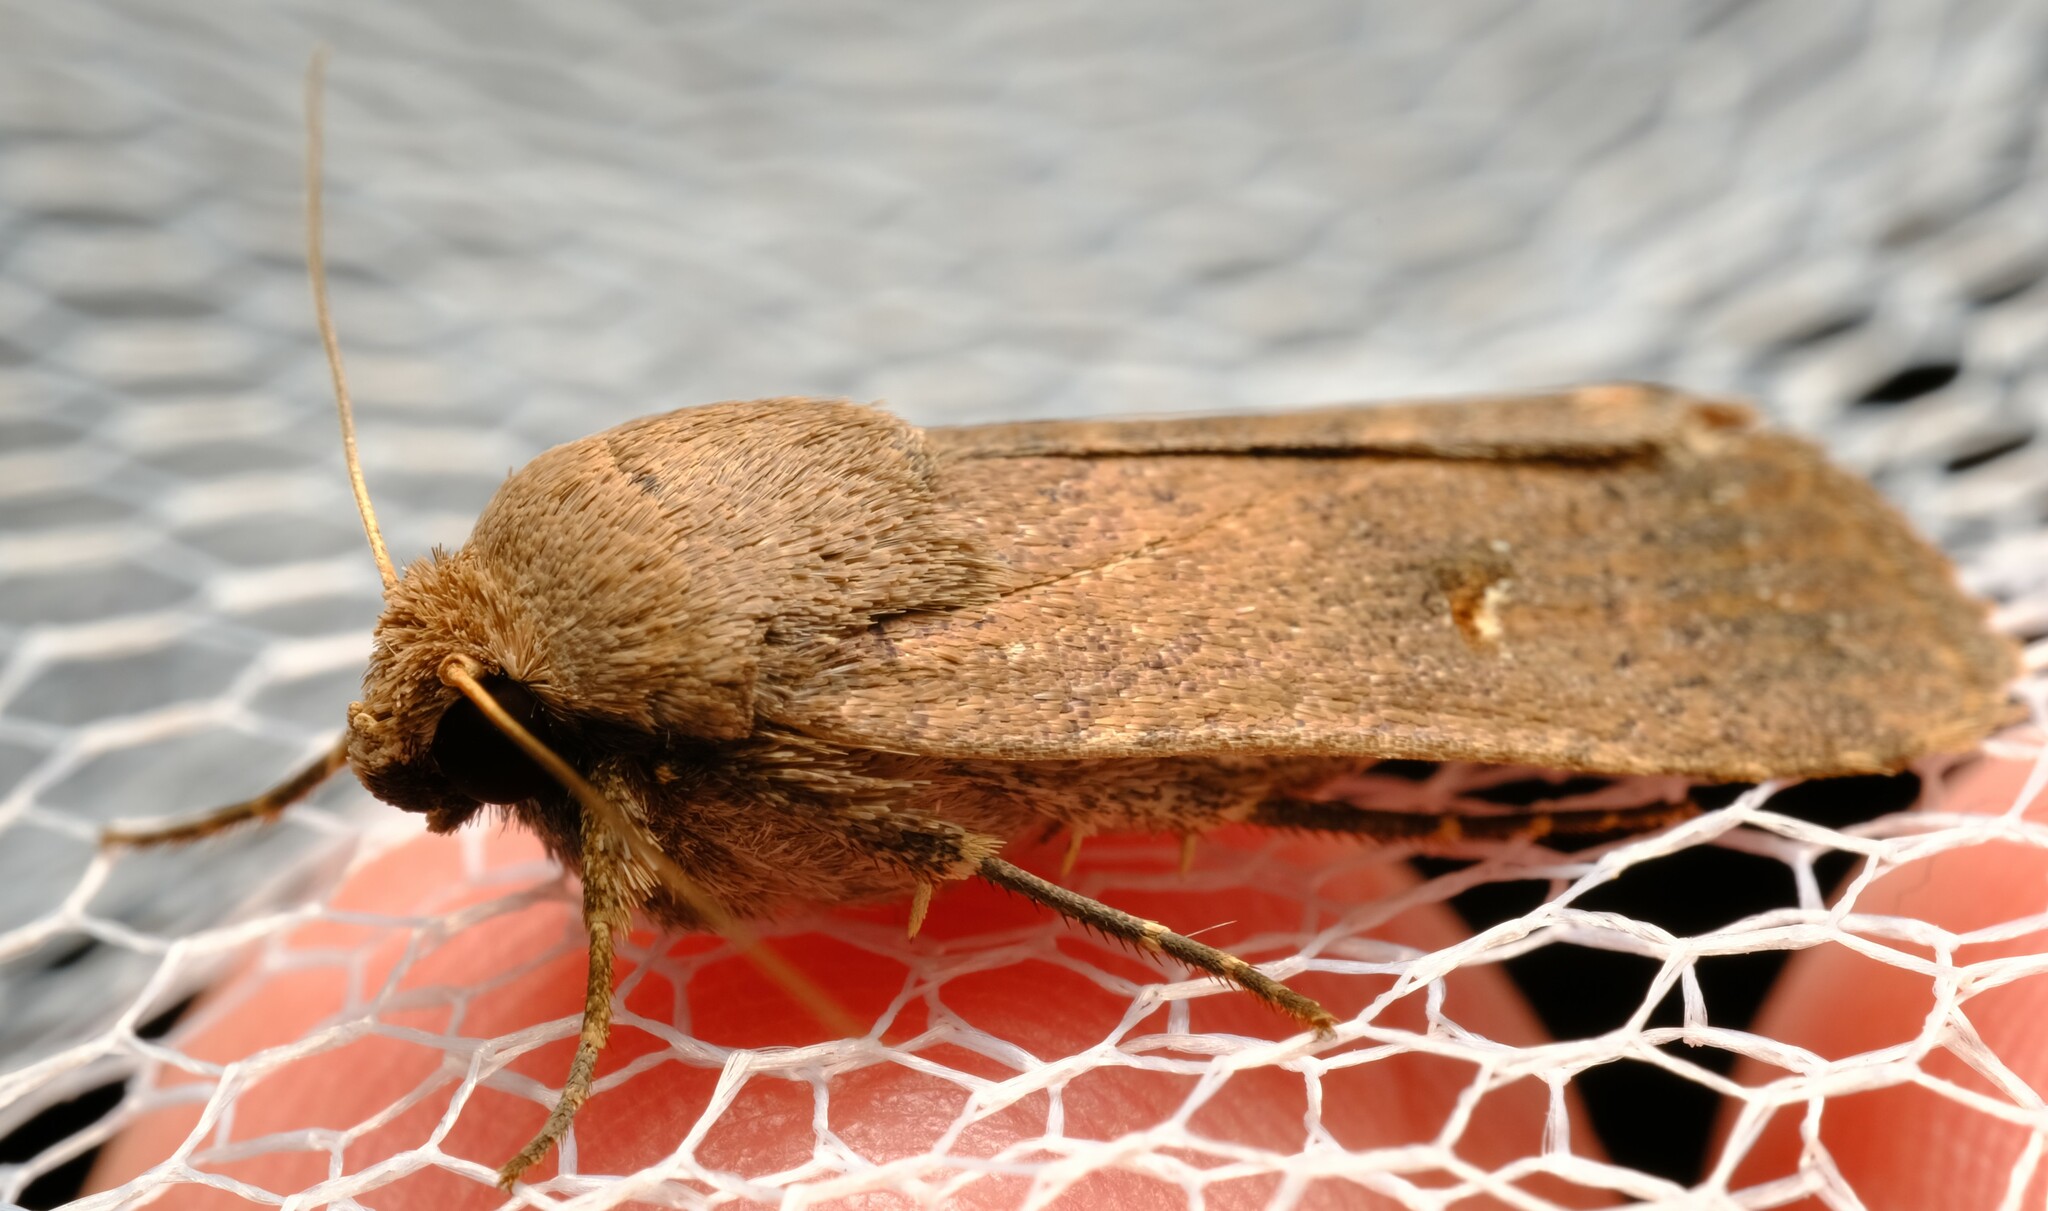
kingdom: Animalia
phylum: Arthropoda
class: Insecta
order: Lepidoptera
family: Noctuidae
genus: Proteuxoa
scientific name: Proteuxoa hypochalchis
